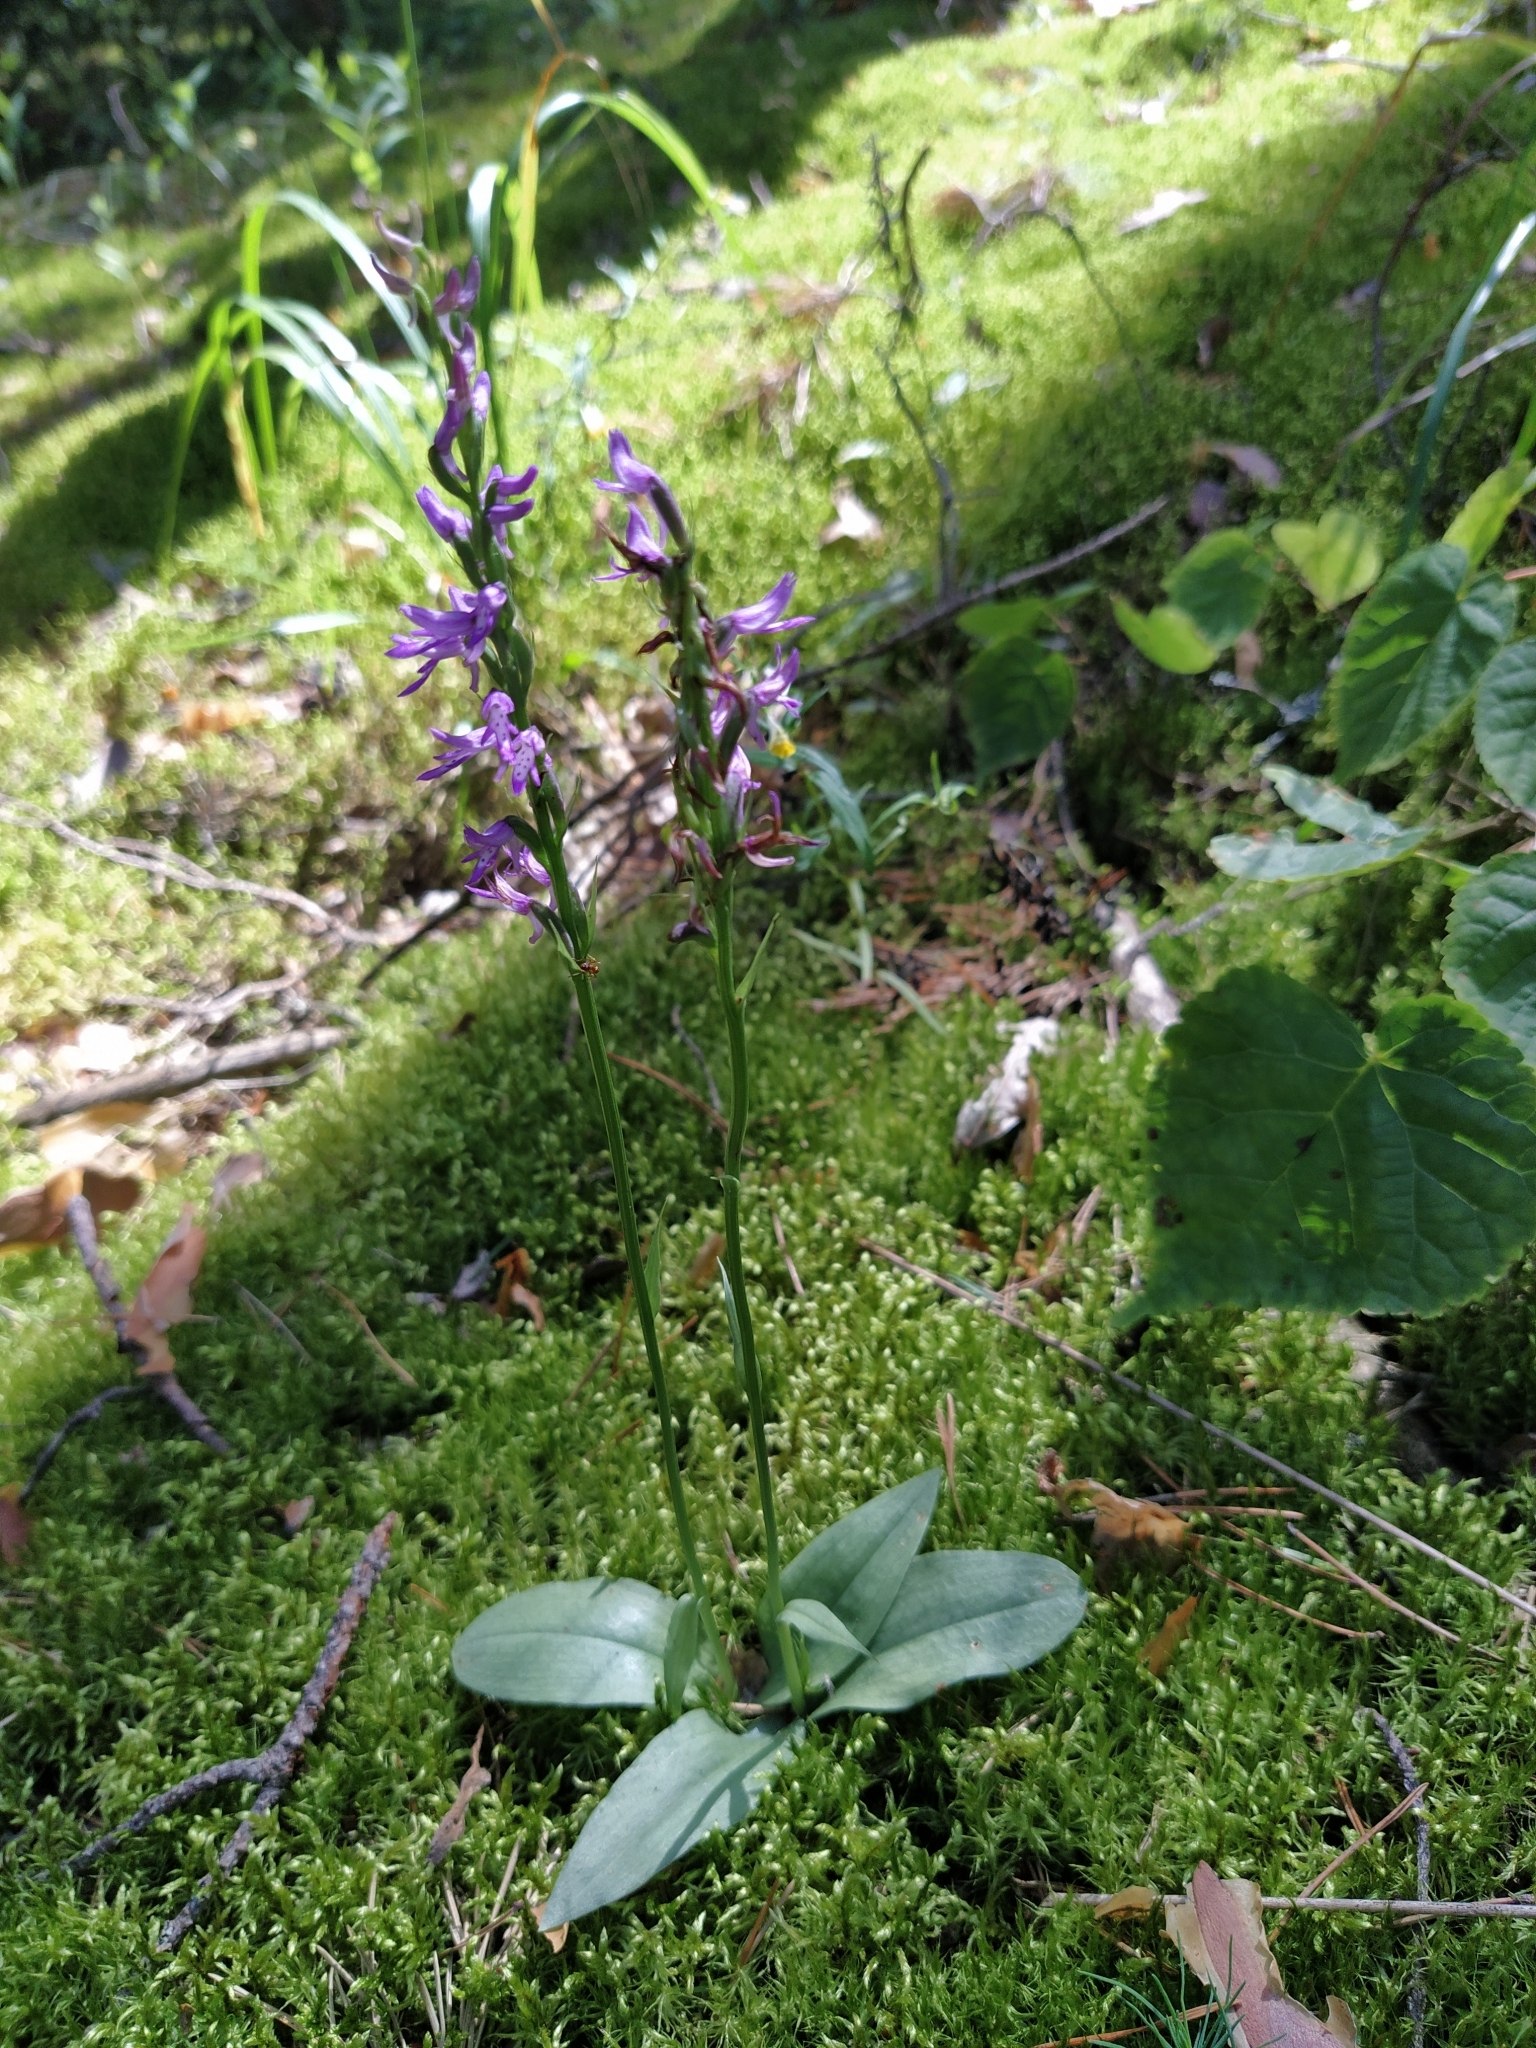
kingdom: Plantae
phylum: Tracheophyta
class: Liliopsida
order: Asparagales
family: Orchidaceae
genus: Hemipilia
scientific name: Hemipilia cucullata
